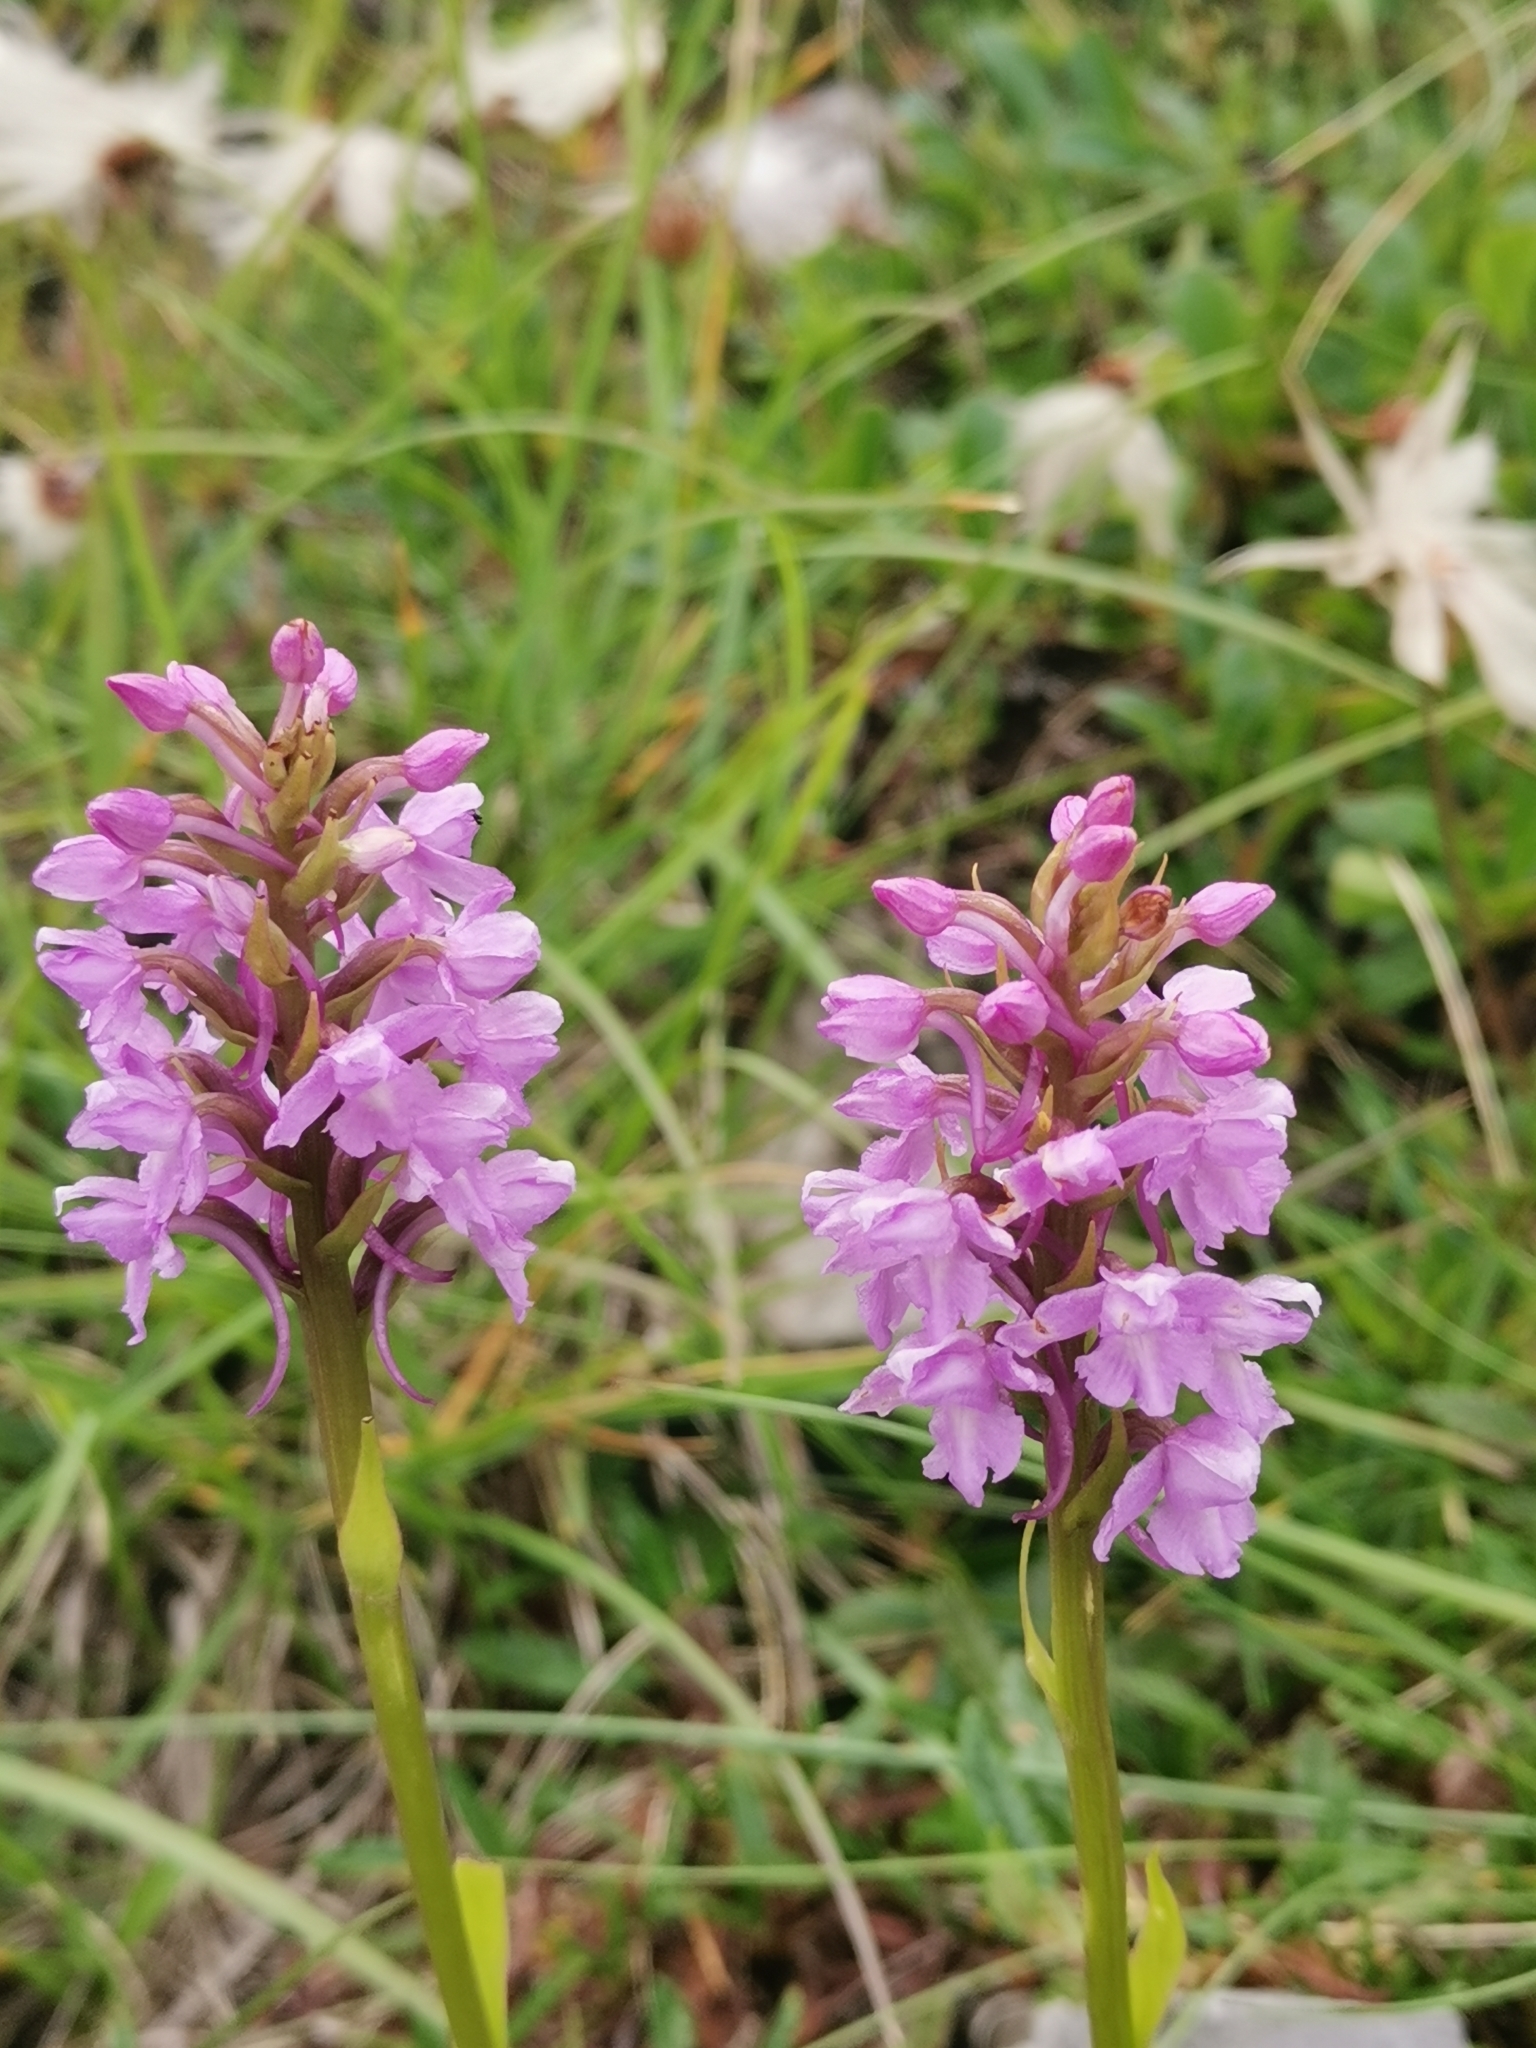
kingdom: Plantae
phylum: Tracheophyta
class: Liliopsida
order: Asparagales
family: Orchidaceae
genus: Gymnadenia
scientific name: Gymnadenia conopsea
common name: Fragrant orchid
